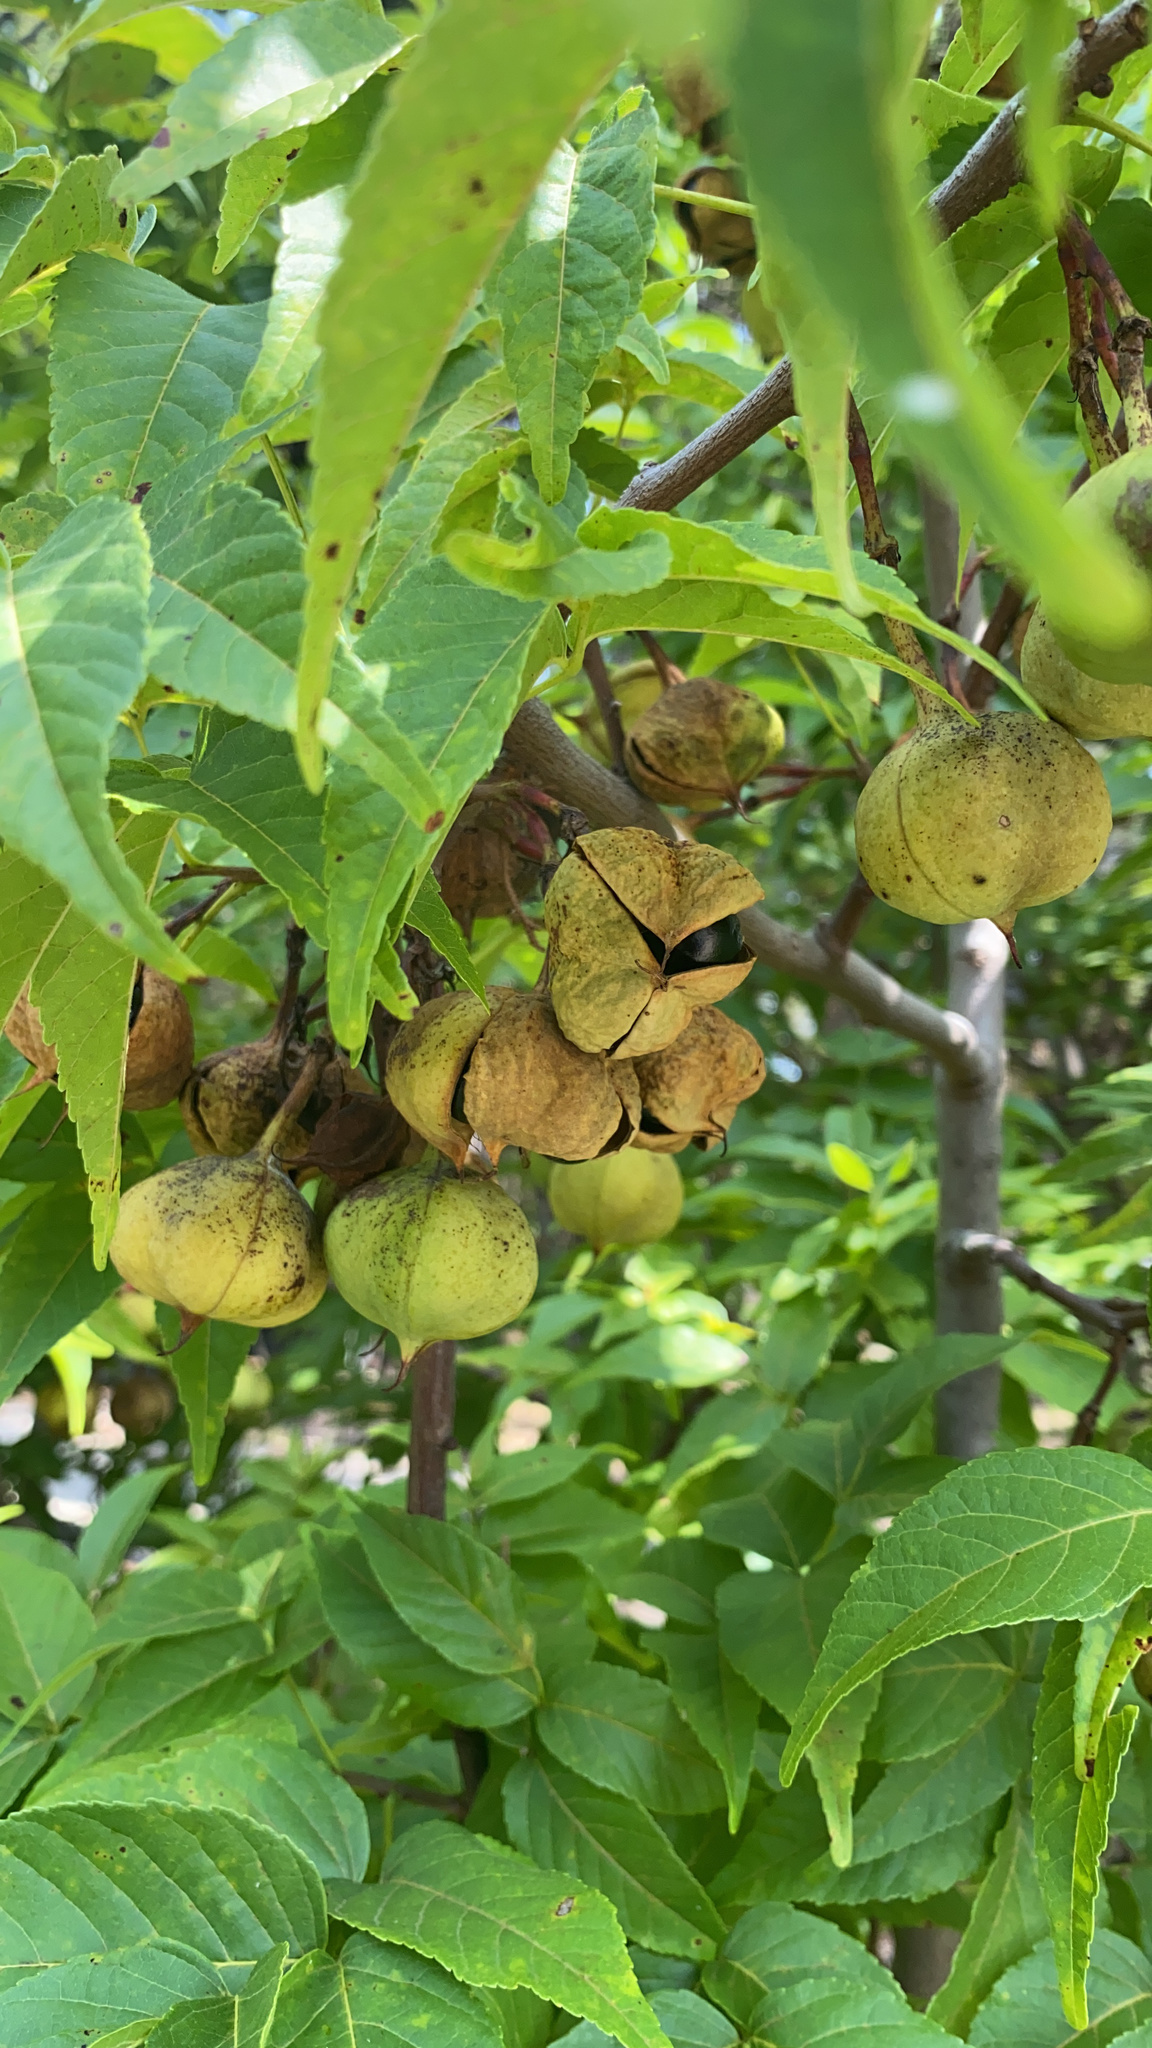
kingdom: Plantae
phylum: Tracheophyta
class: Magnoliopsida
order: Sapindales
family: Sapindaceae
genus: Ungnadia
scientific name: Ungnadia speciosa
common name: Texas-buckeye
